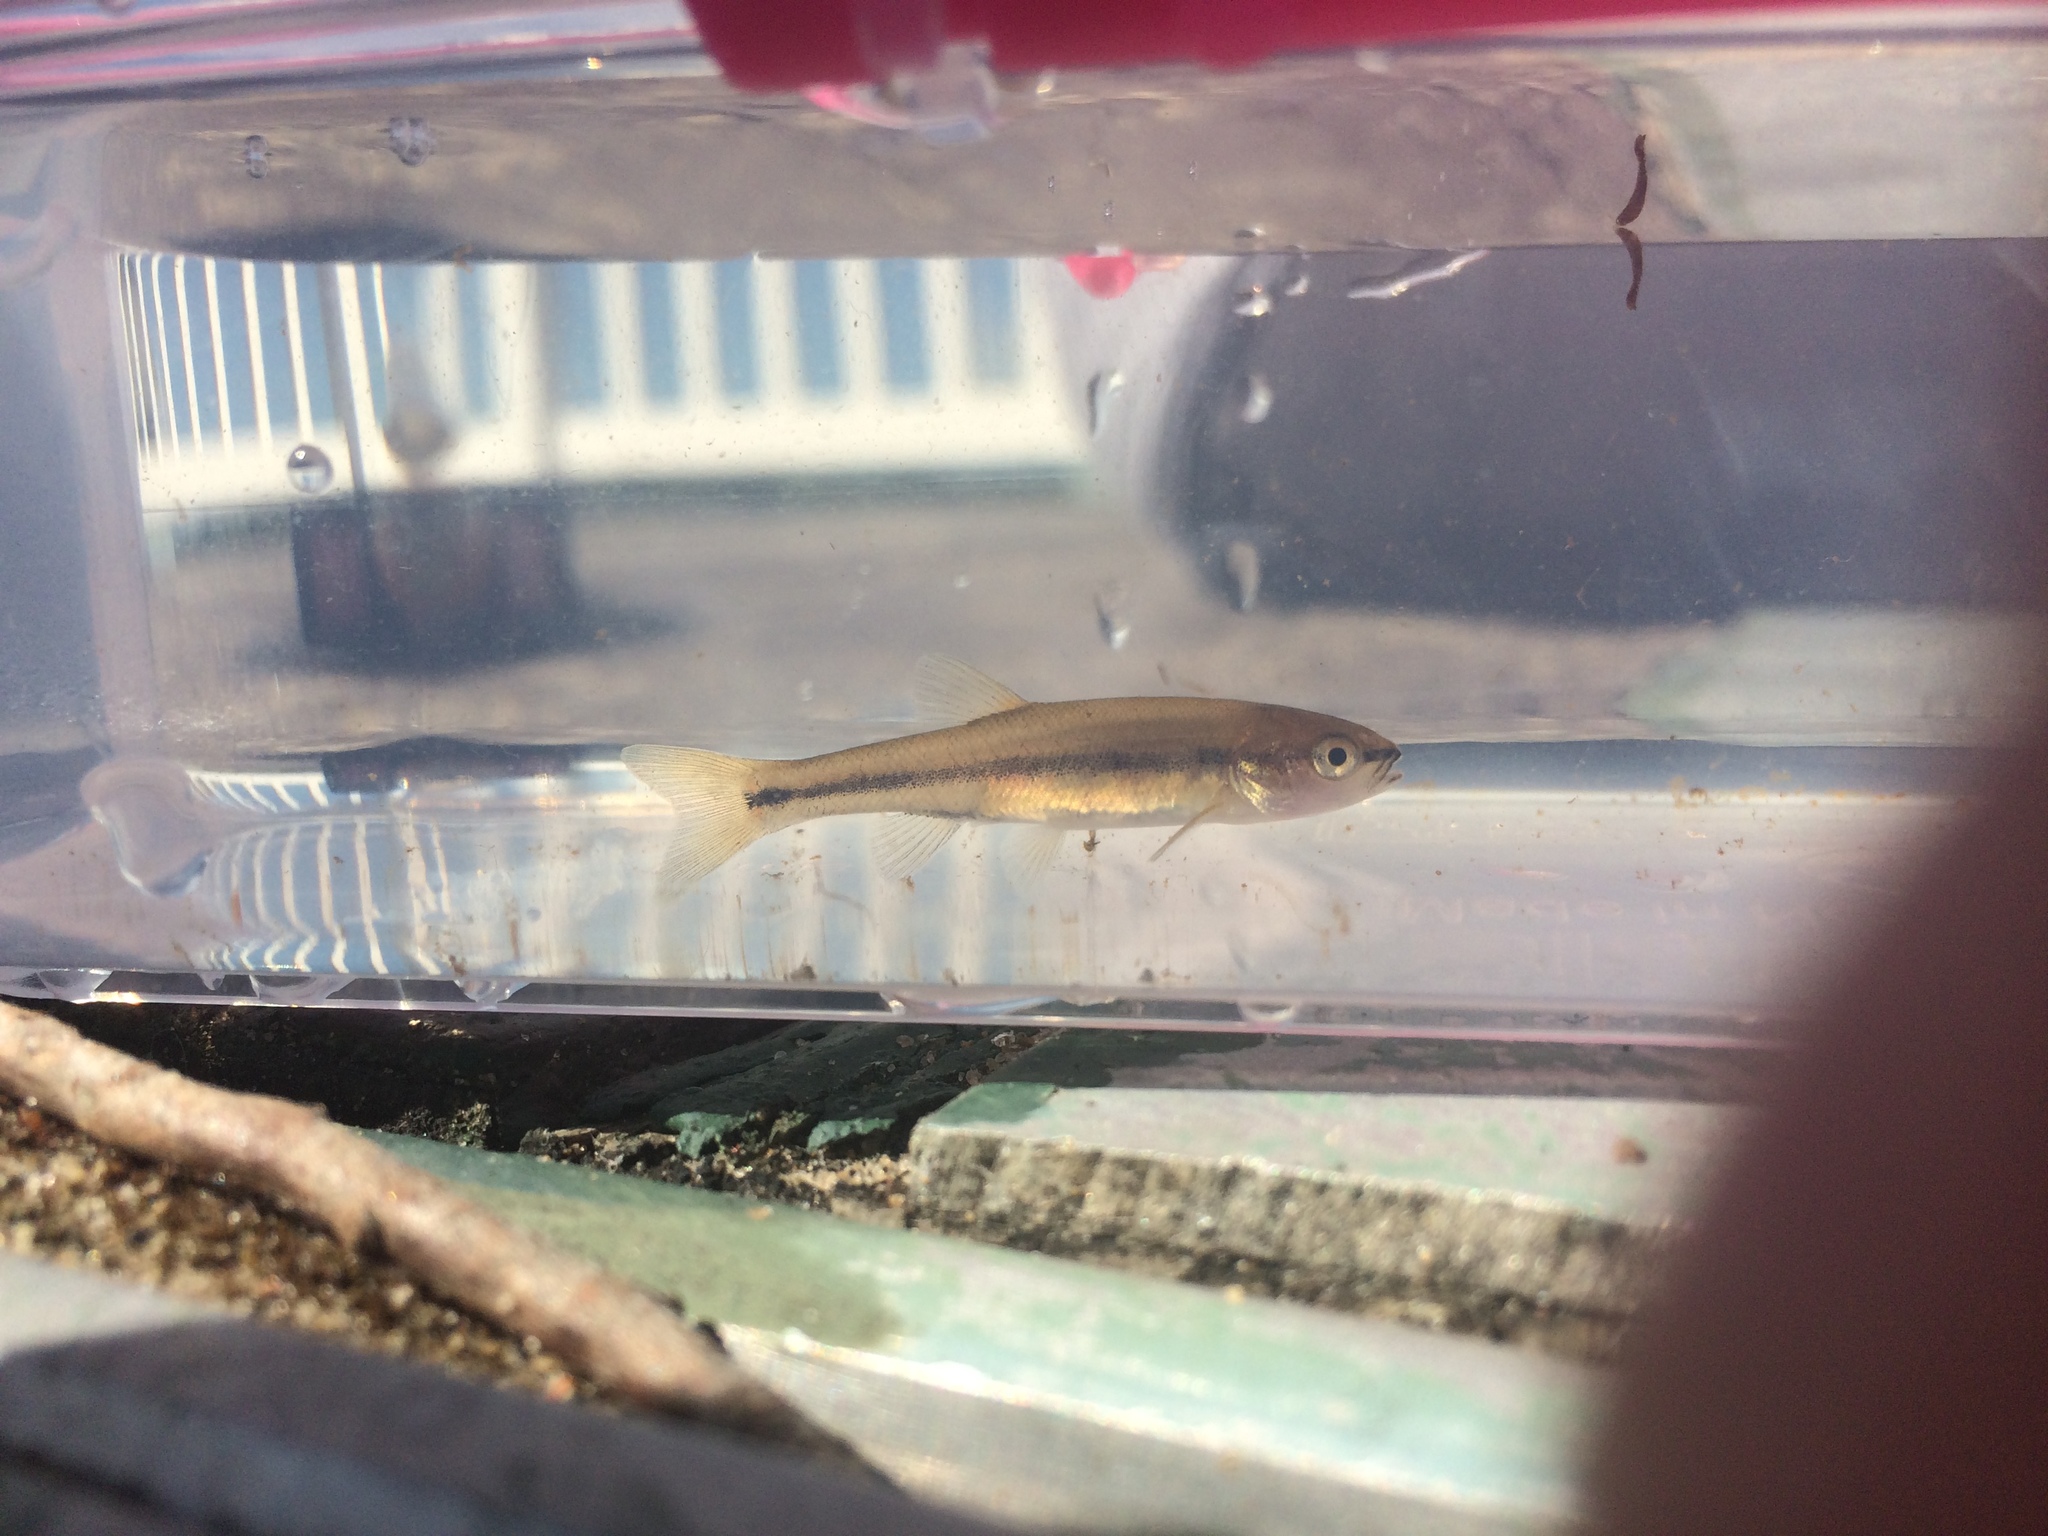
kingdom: Animalia
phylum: Chordata
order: Cypriniformes
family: Cyprinidae
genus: Semotilus
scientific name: Semotilus atromaculatus
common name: Creek chub
